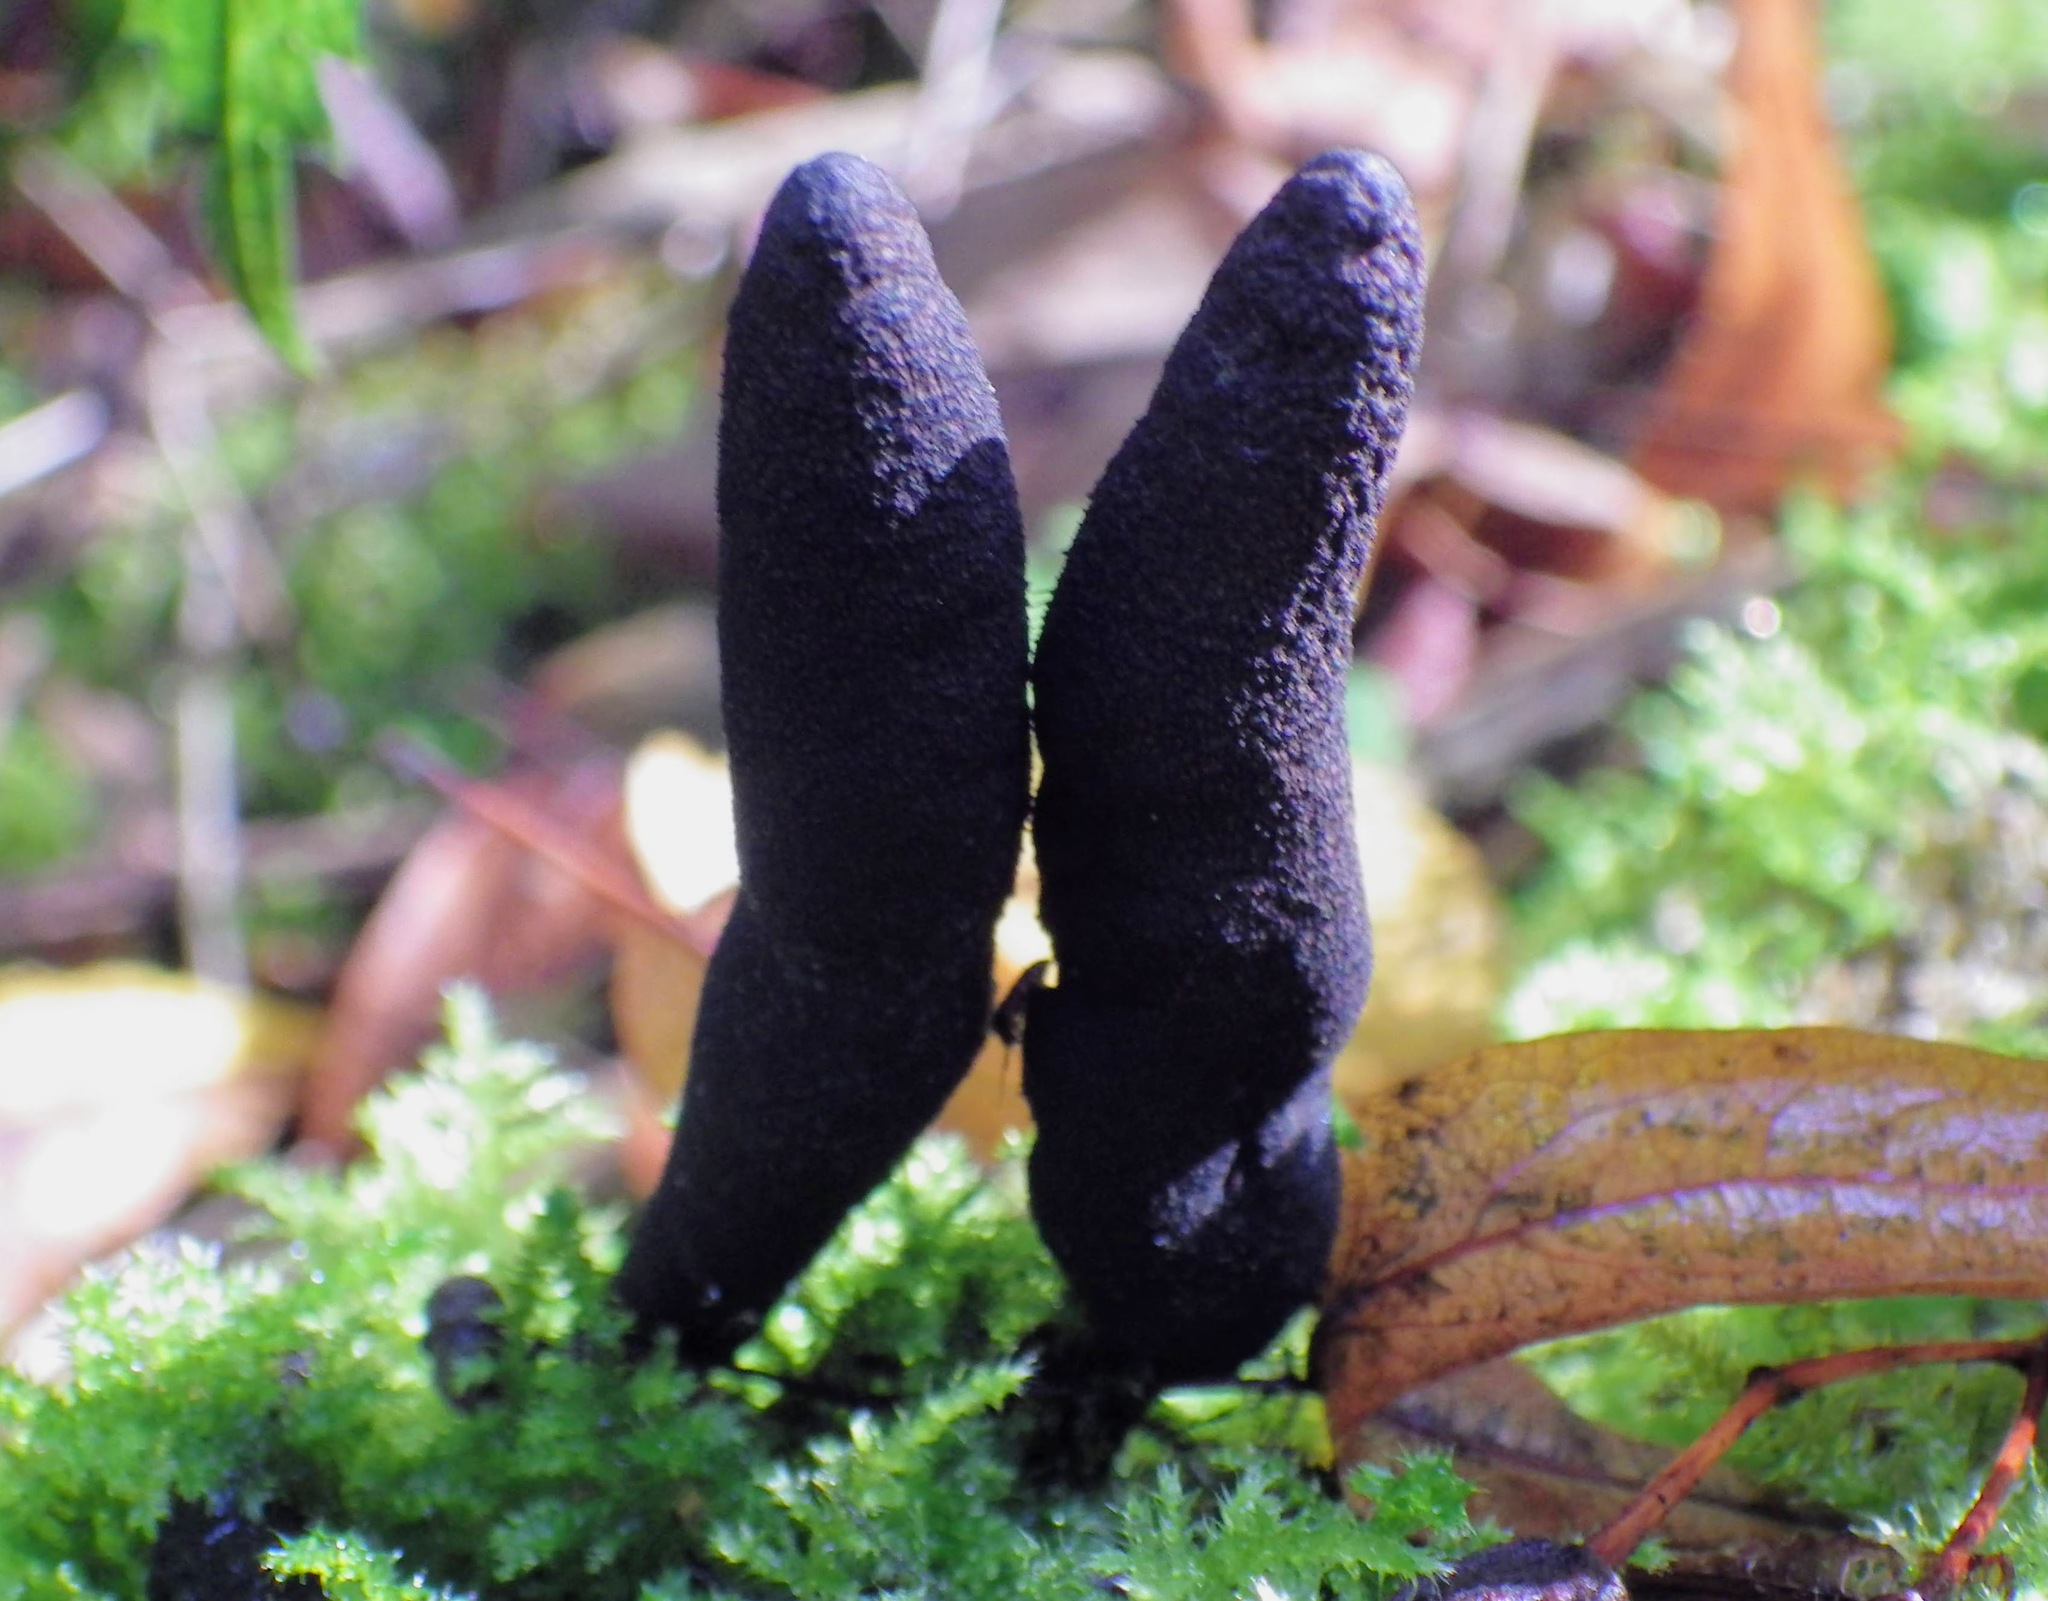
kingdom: Fungi
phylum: Ascomycota
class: Sordariomycetes
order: Xylariales
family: Xylariaceae
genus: Xylaria
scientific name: Xylaria longipes
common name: Dead moll's fingers
